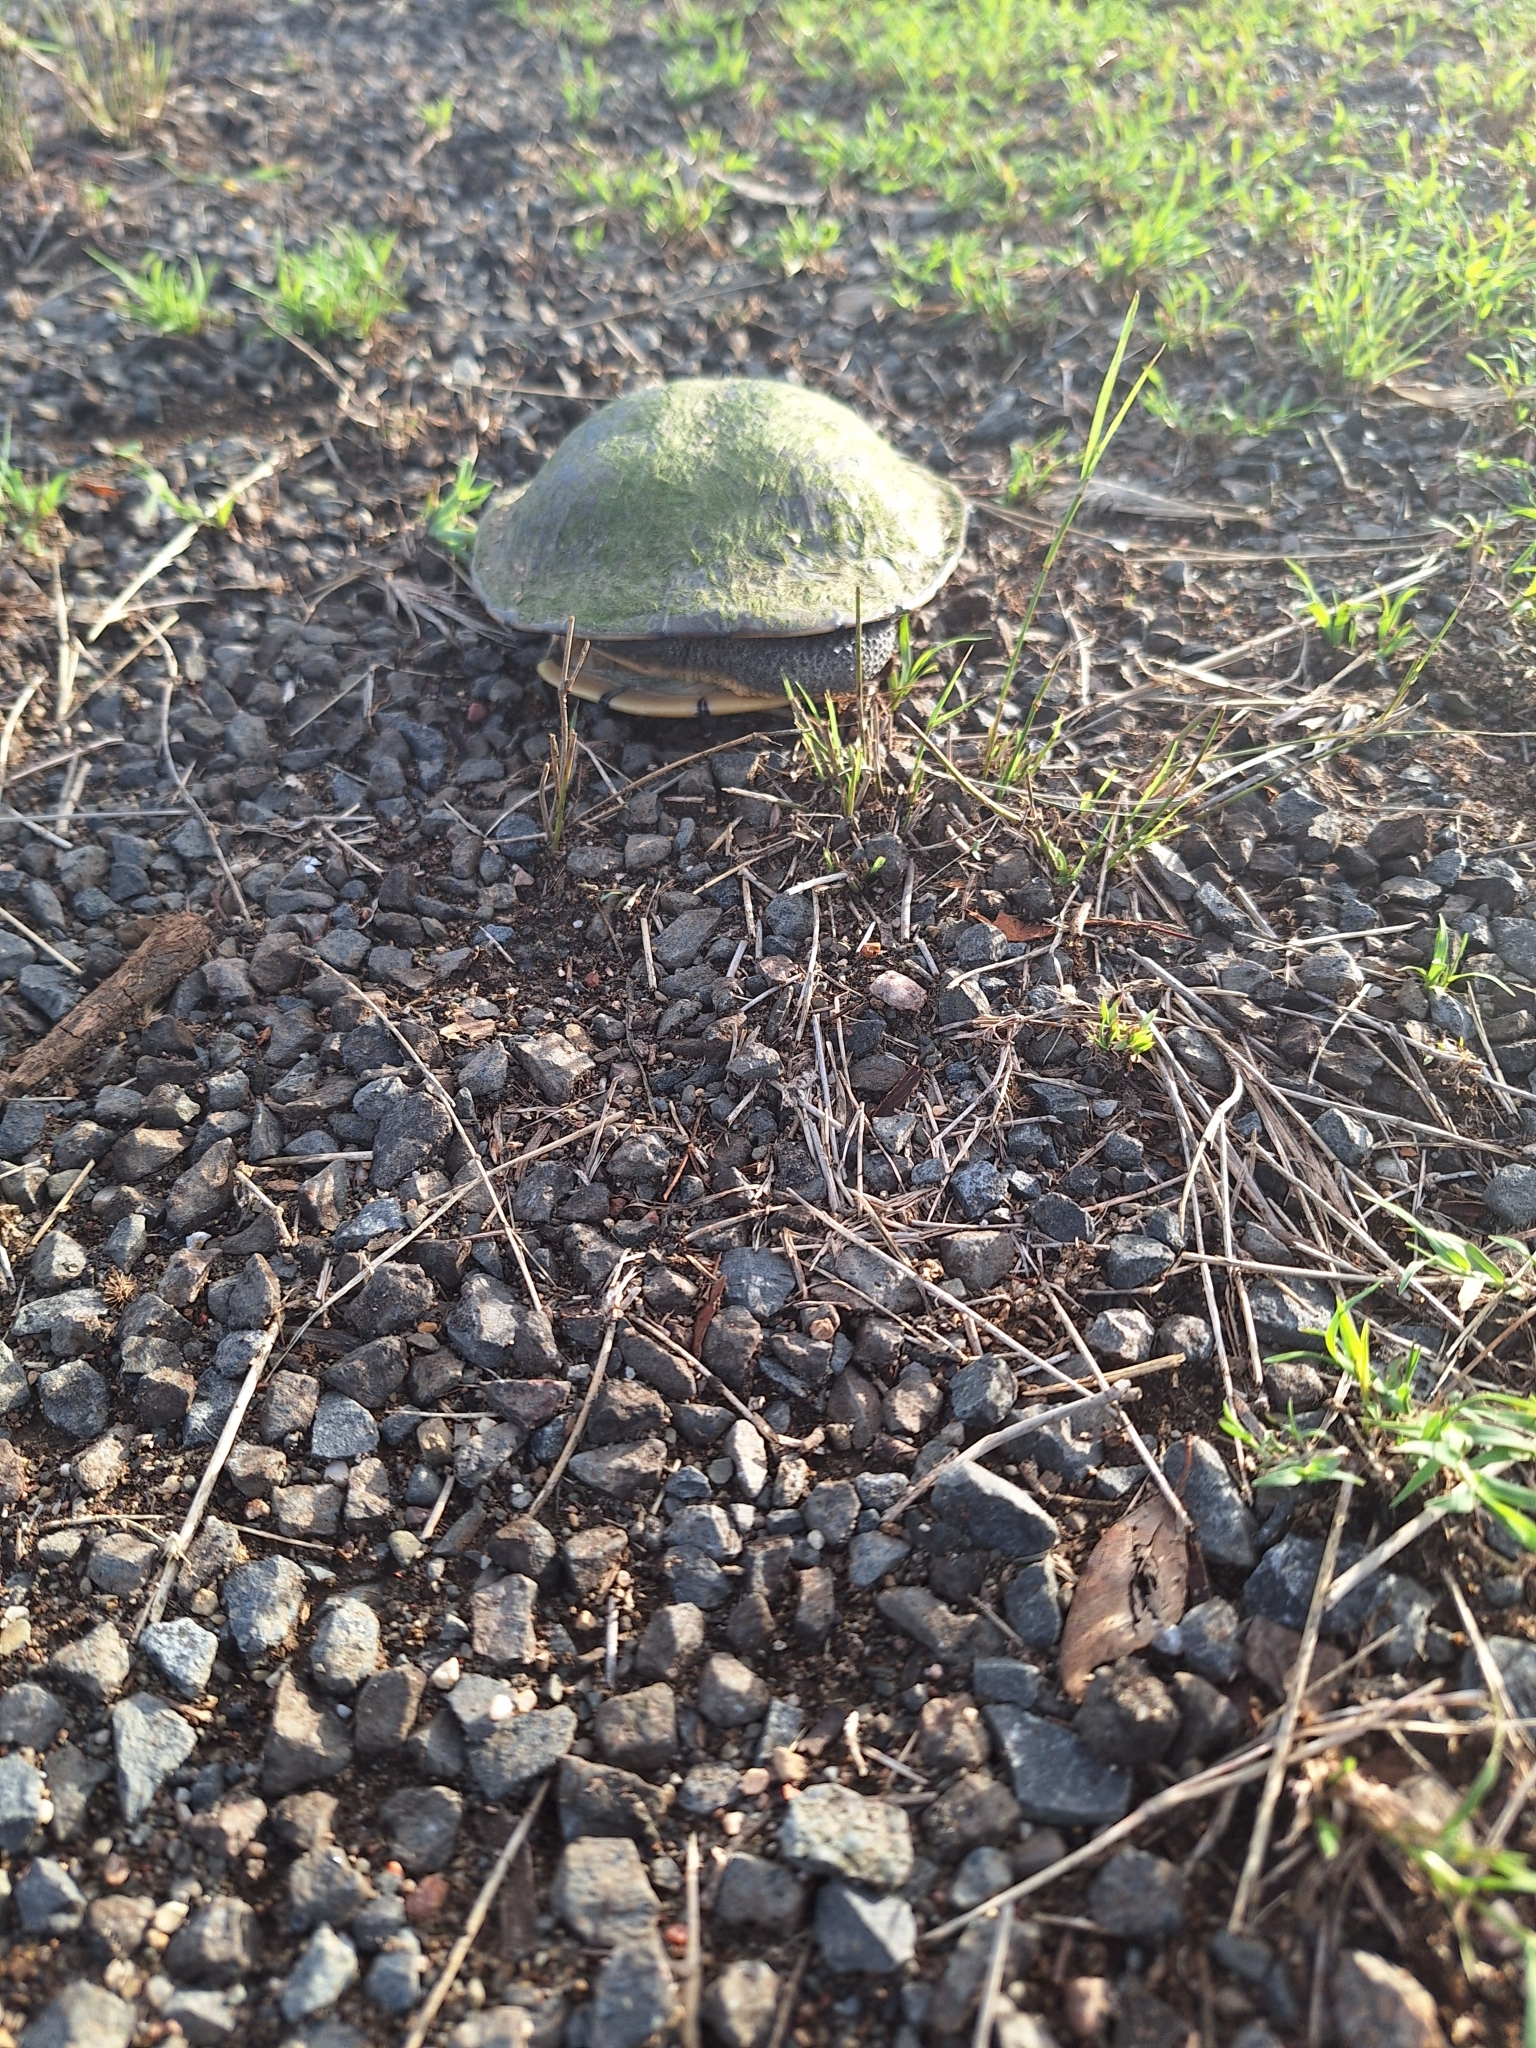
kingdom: Animalia
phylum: Chordata
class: Testudines
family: Chelidae
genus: Chelodina
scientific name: Chelodina longicollis
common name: Eastern snake-necked turtle
